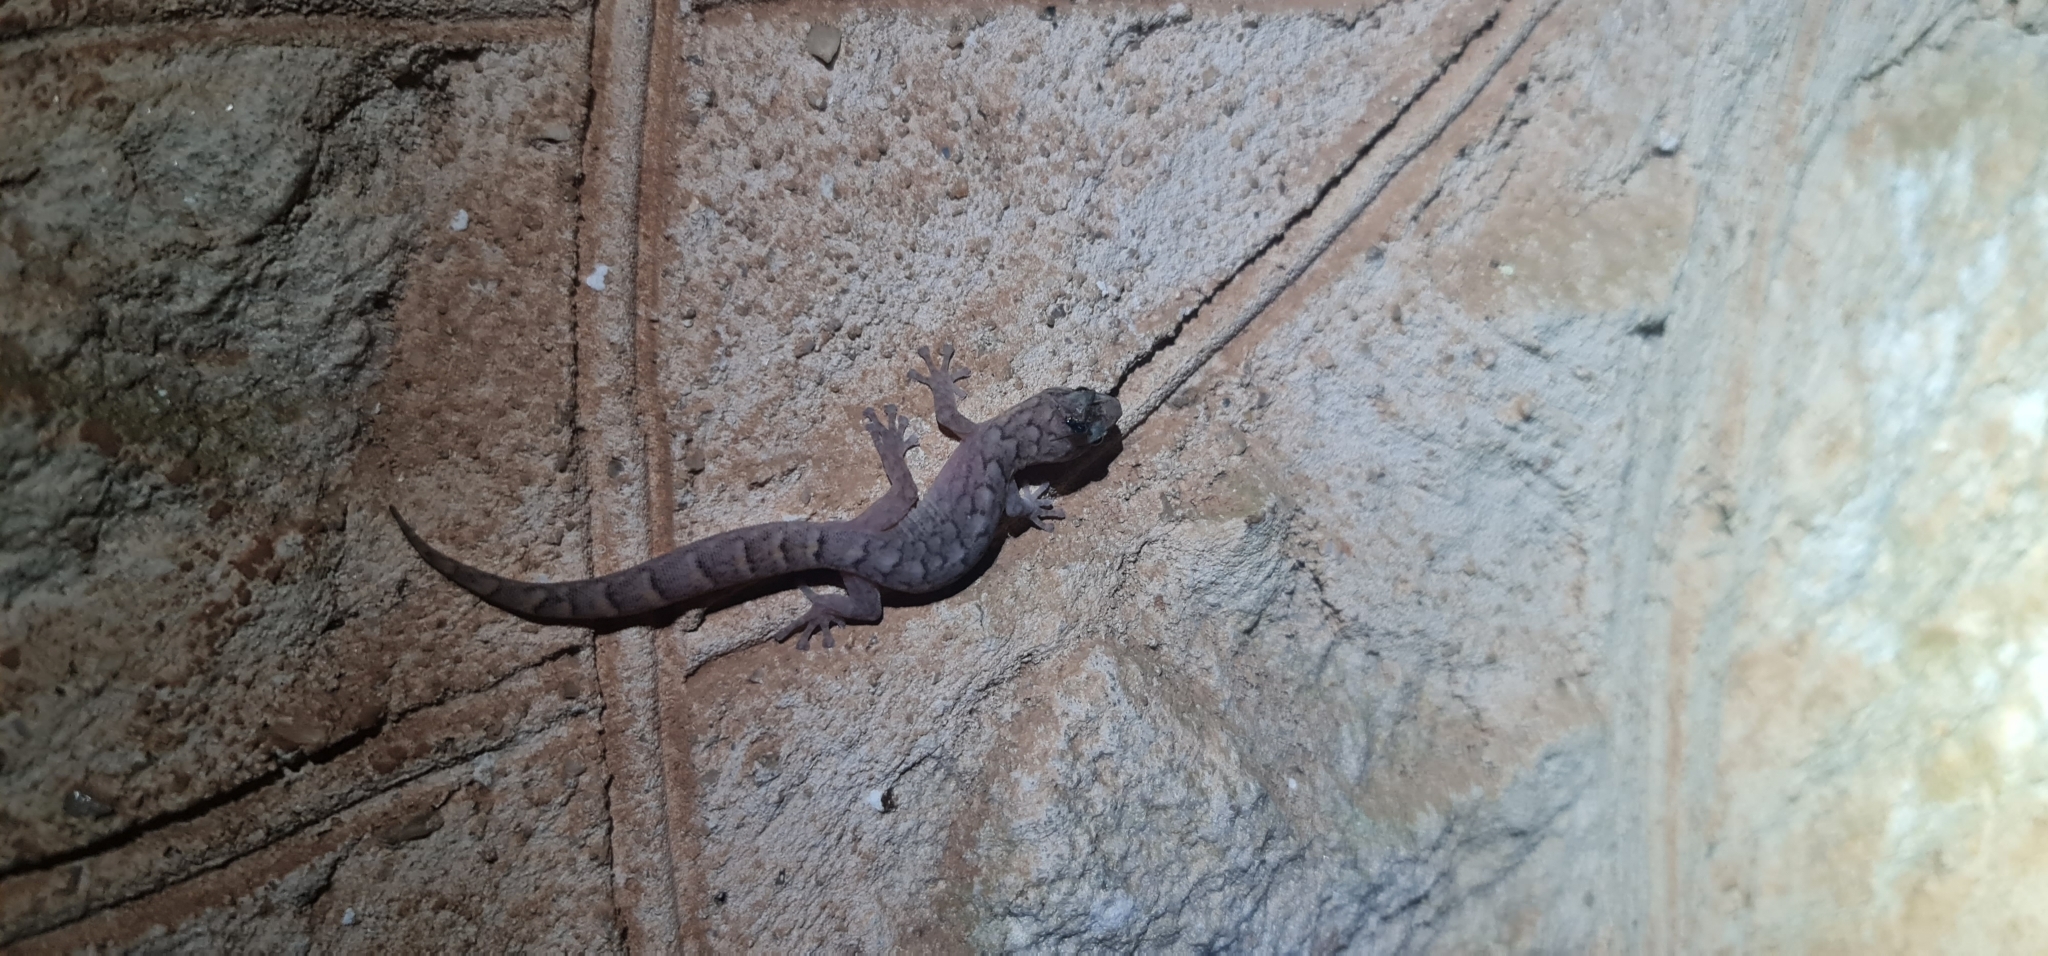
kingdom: Animalia
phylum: Chordata
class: Squamata
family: Gekkonidae
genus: Christinus
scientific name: Christinus marmoratus
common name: Marbled gecko
